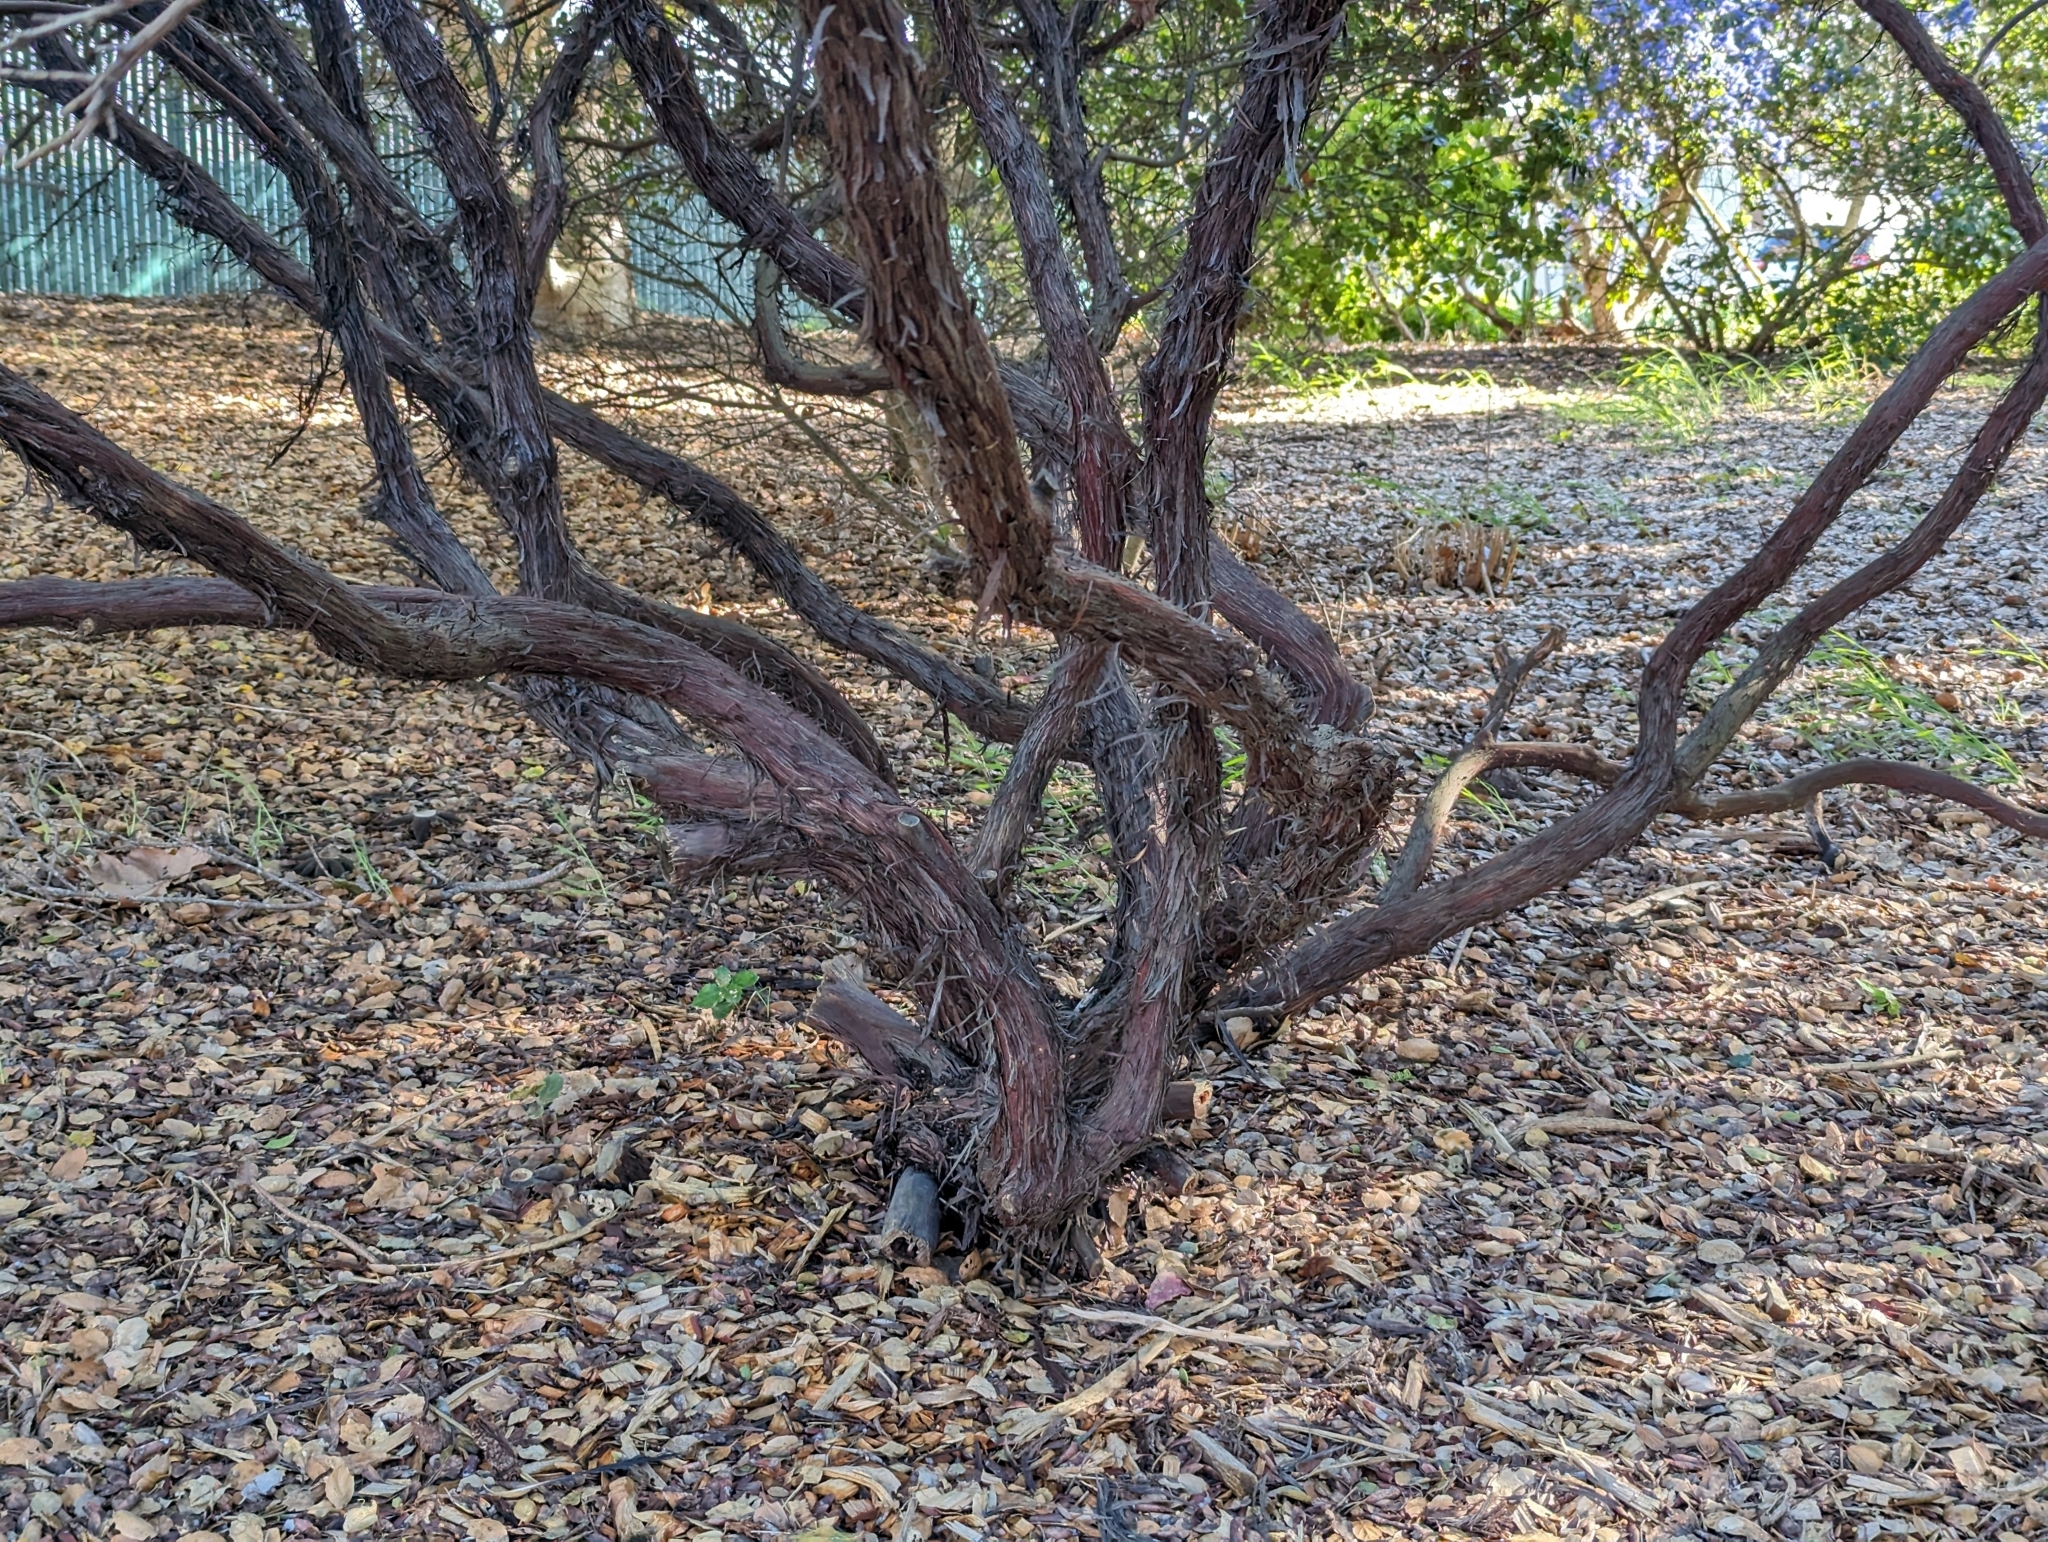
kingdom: Plantae
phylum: Tracheophyta
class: Magnoliopsida
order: Ericales
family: Ericaceae
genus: Arctostaphylos
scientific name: Arctostaphylos pajaroensis
